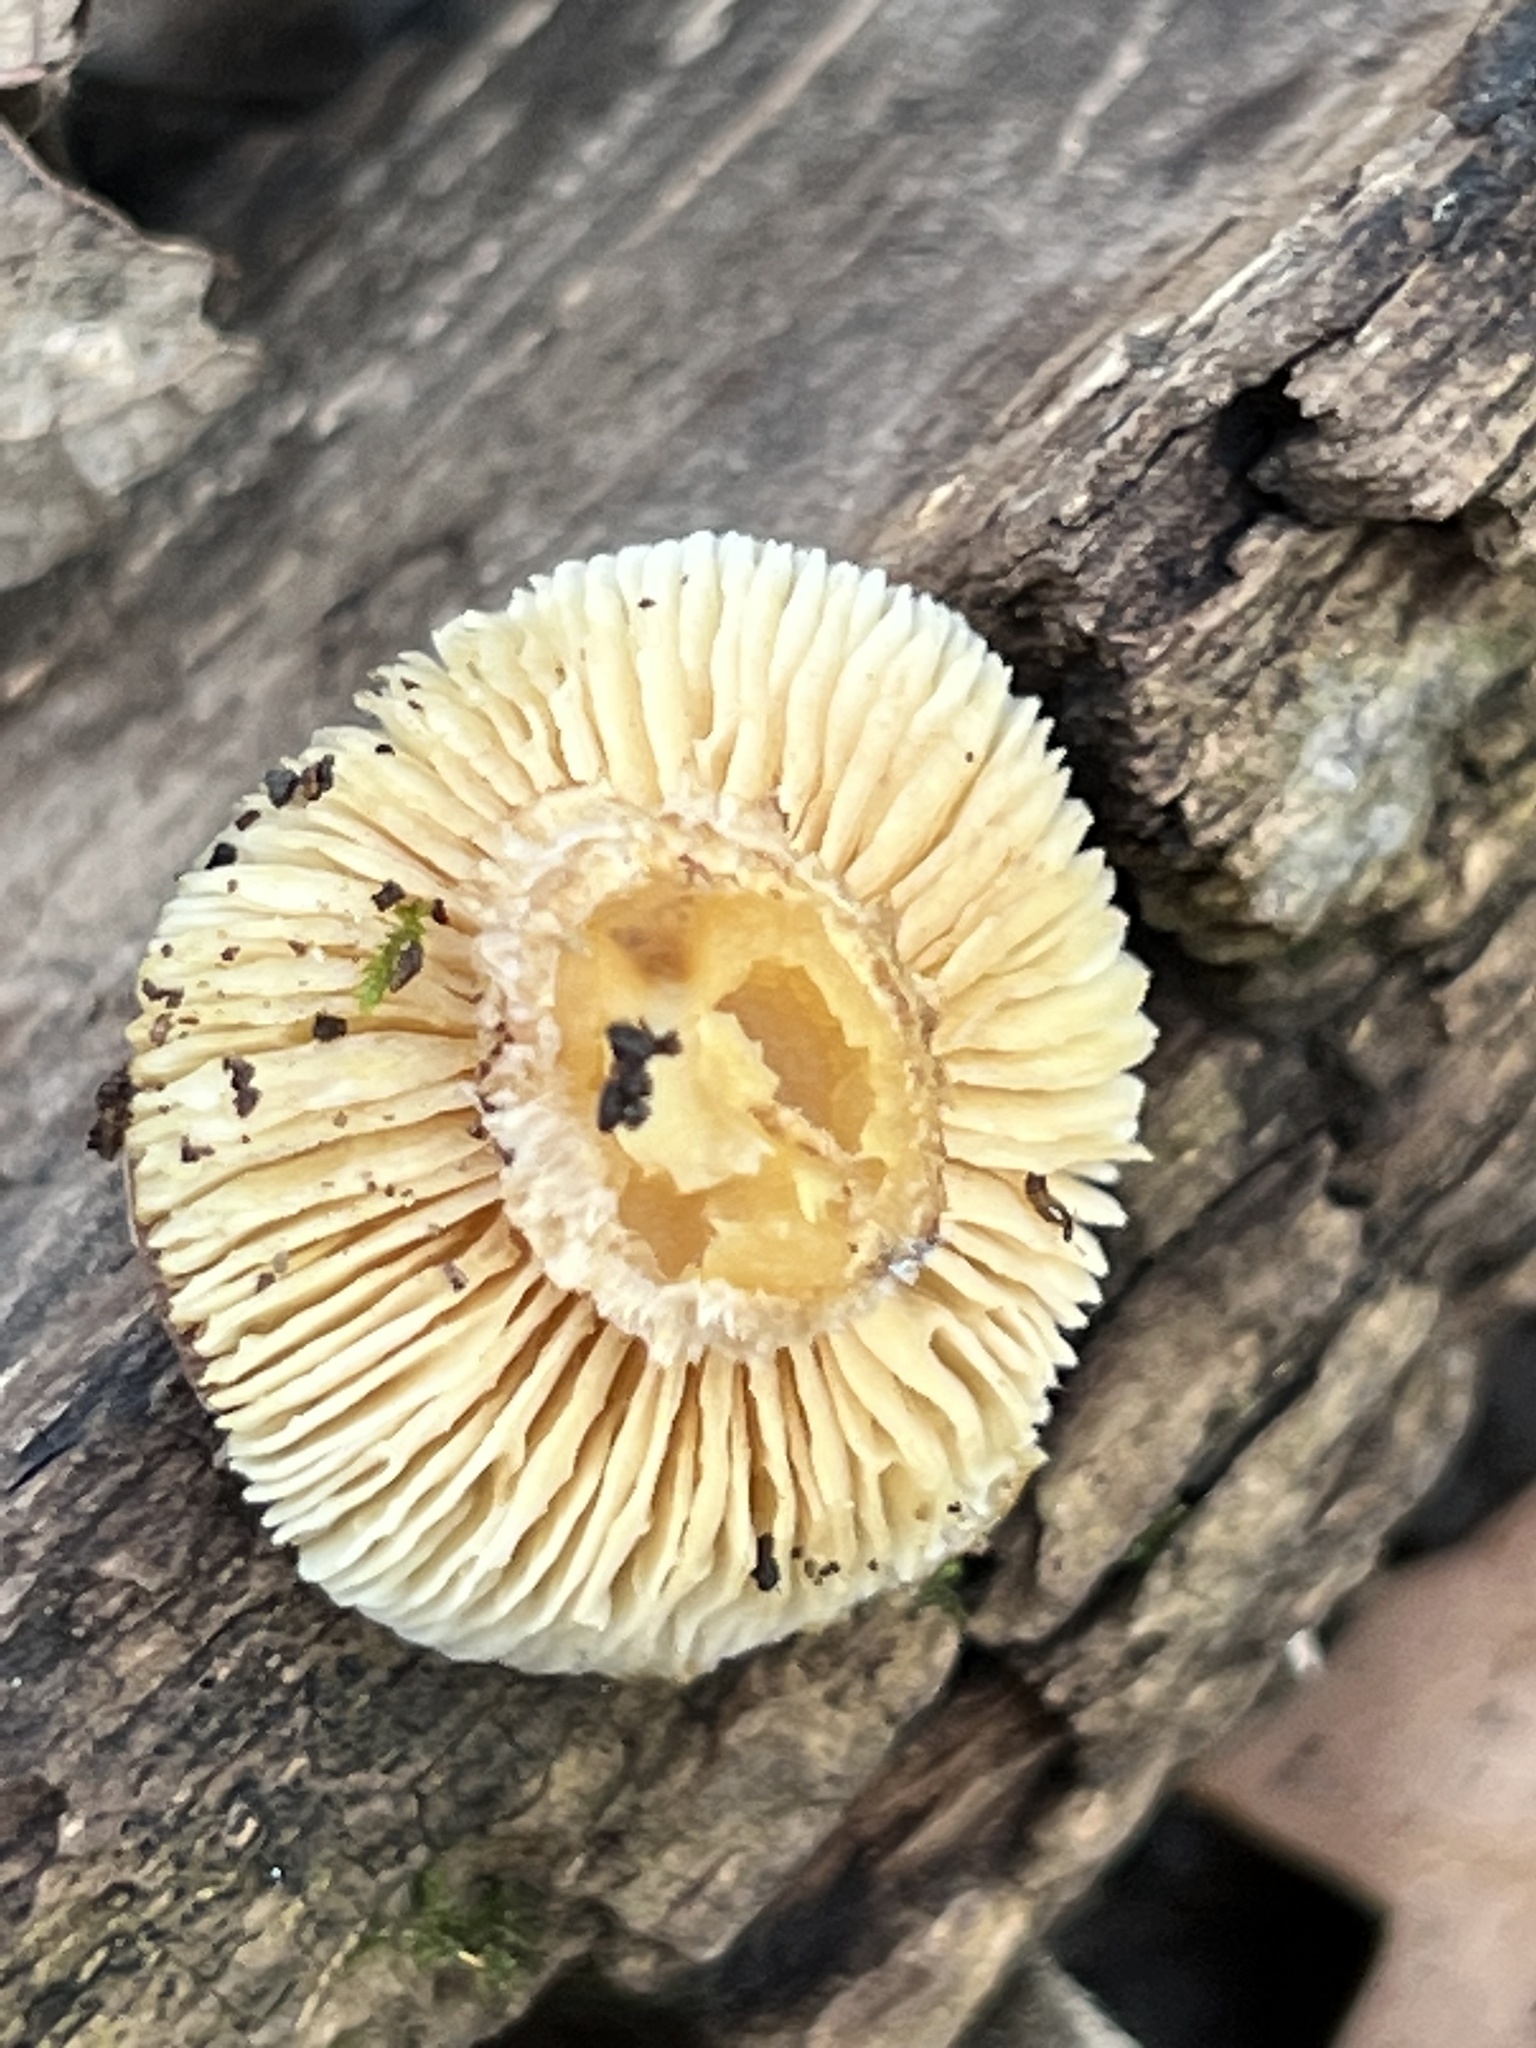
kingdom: Fungi
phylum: Basidiomycota
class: Agaricomycetes
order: Gloeophyllales
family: Gloeophyllaceae
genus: Heliocybe
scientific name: Heliocybe sulcata
